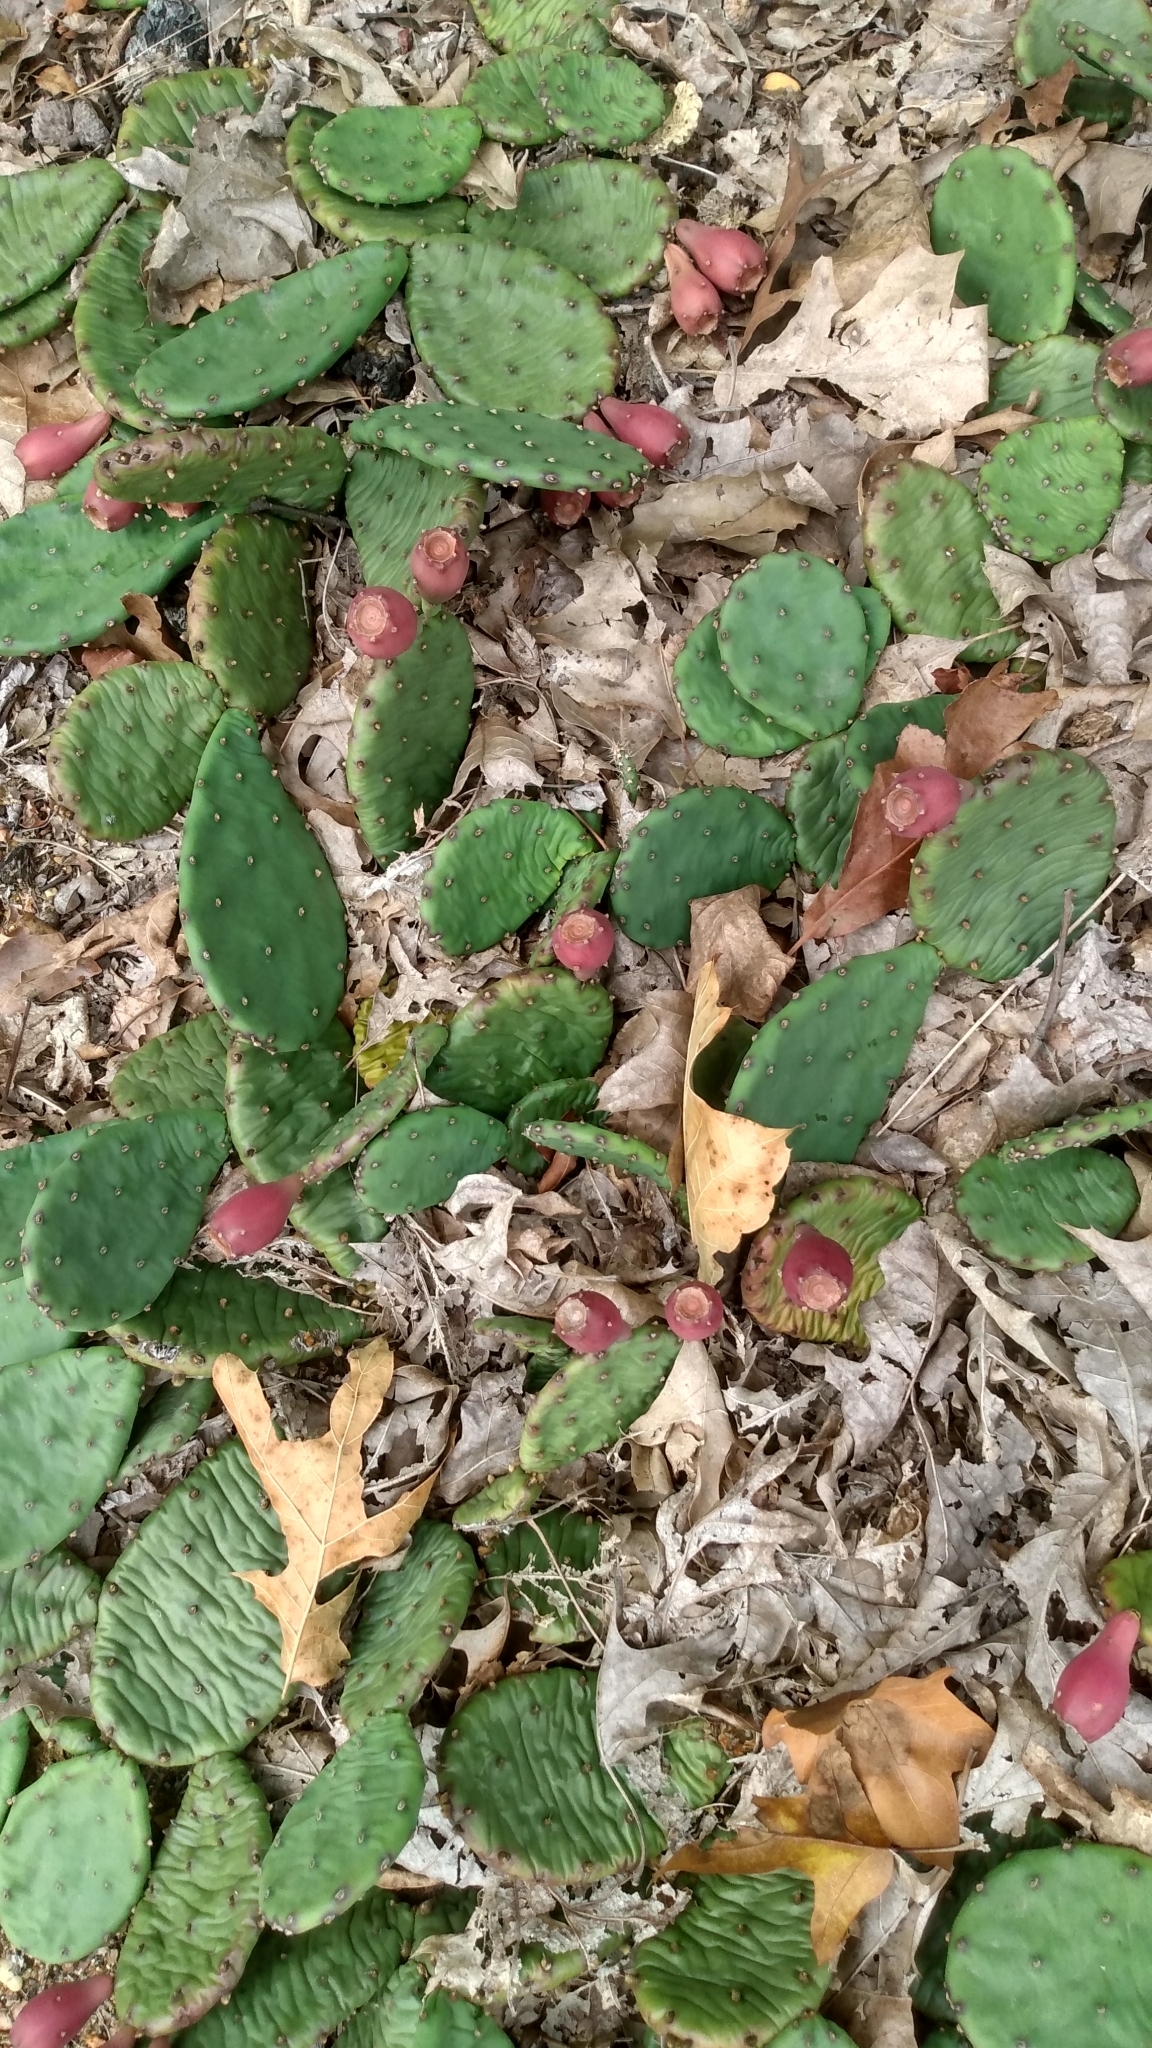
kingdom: Plantae
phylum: Tracheophyta
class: Magnoliopsida
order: Caryophyllales
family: Cactaceae
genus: Opuntia
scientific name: Opuntia humifusa
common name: Eastern prickly-pear
